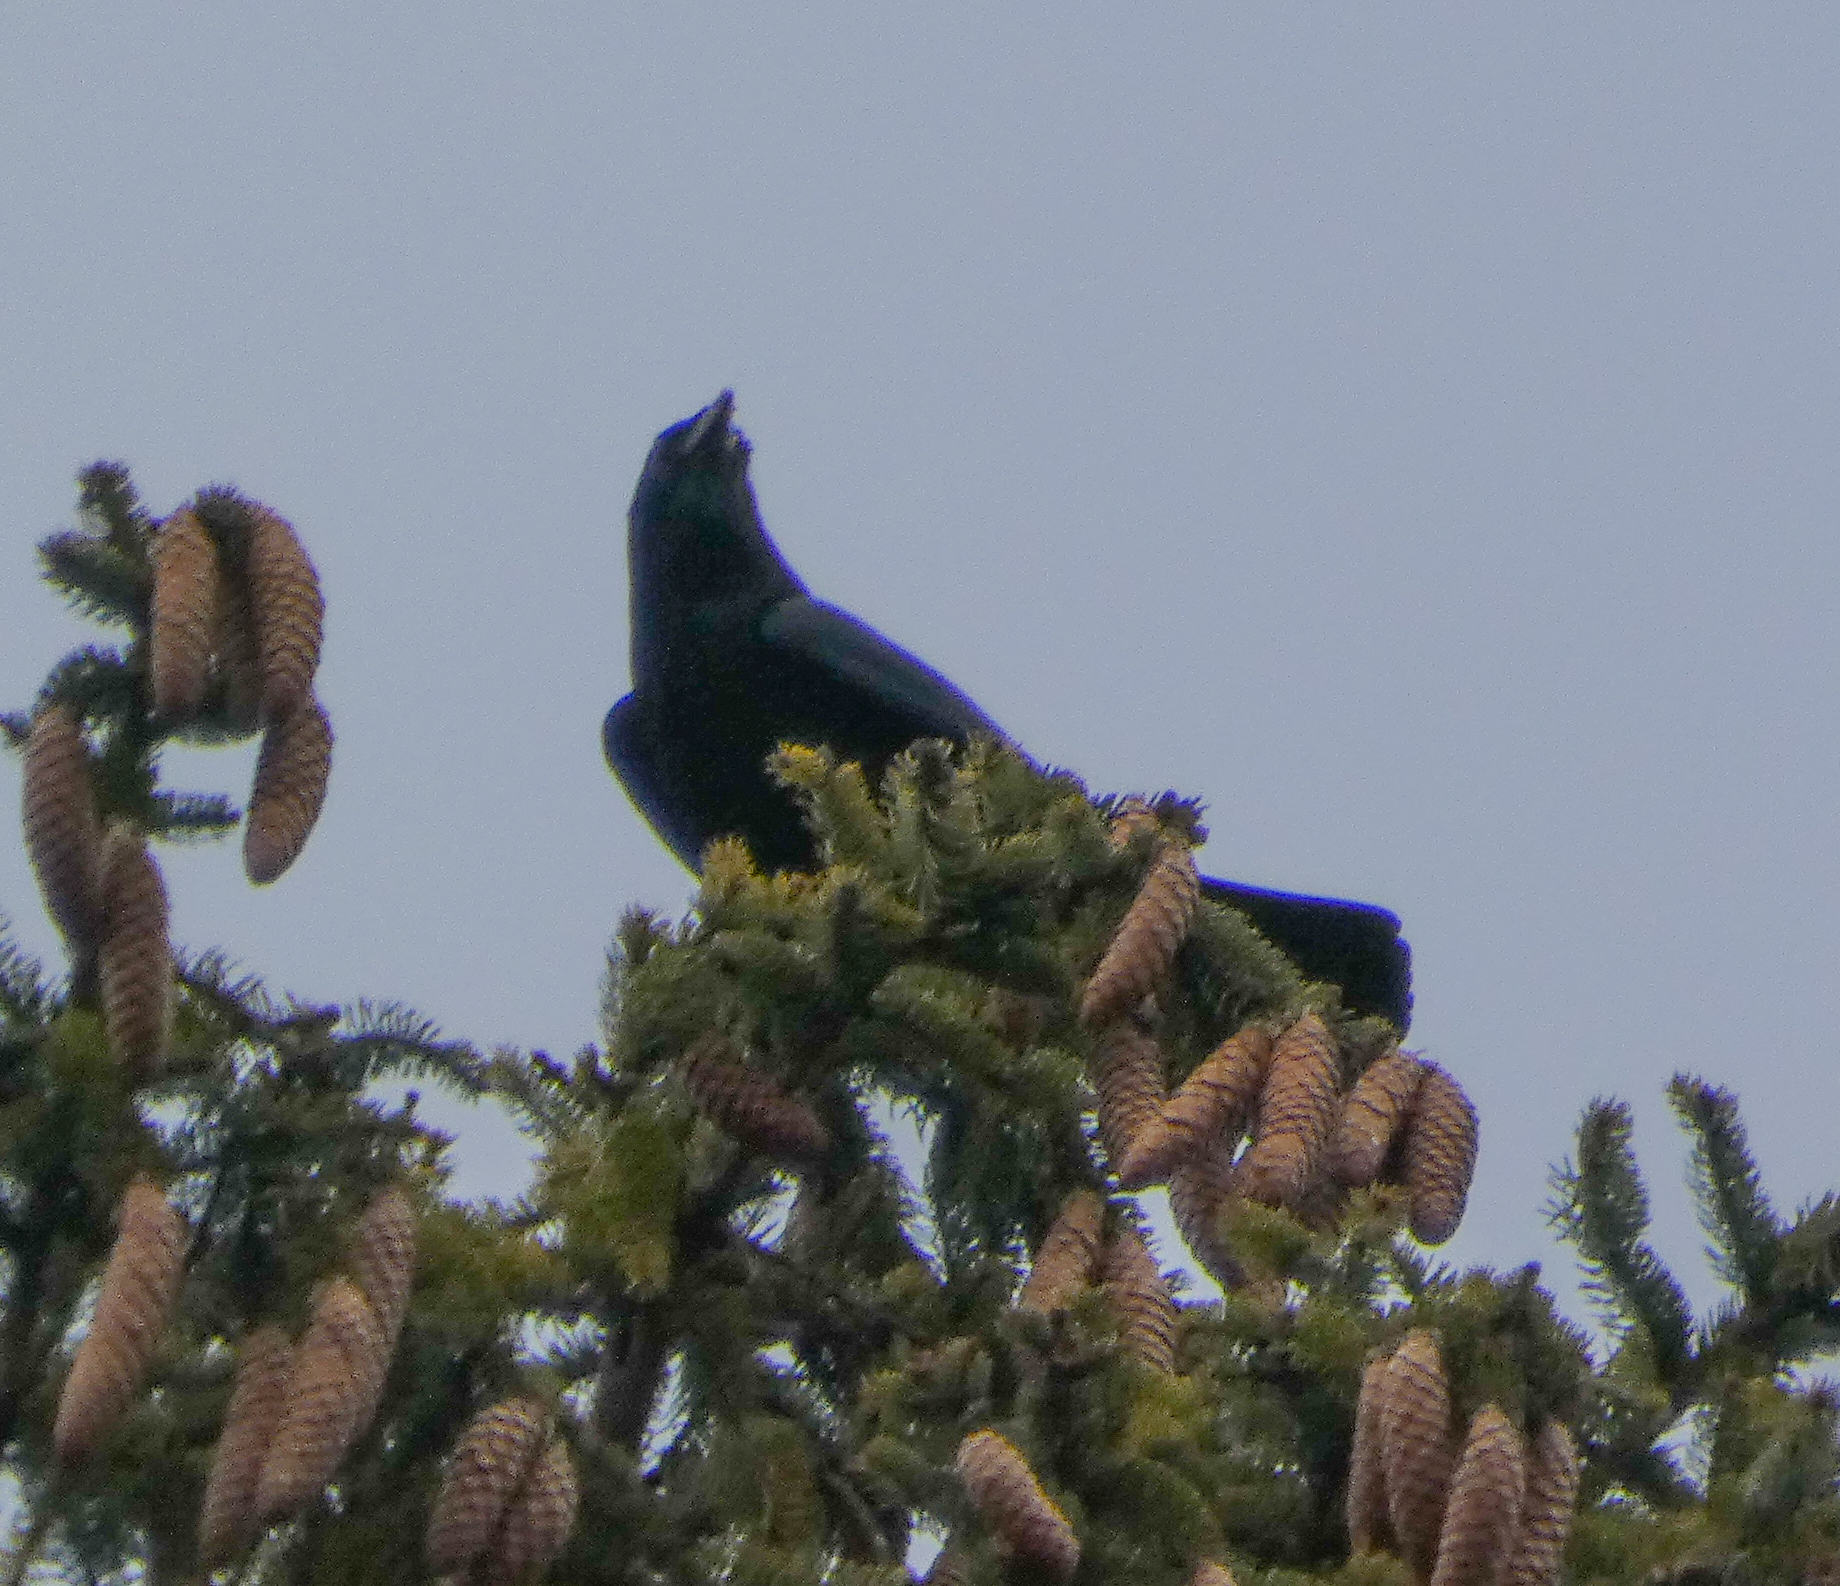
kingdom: Animalia
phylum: Chordata
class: Aves
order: Passeriformes
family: Corvidae
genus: Corvus
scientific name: Corvus ossifragus
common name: Fish crow
